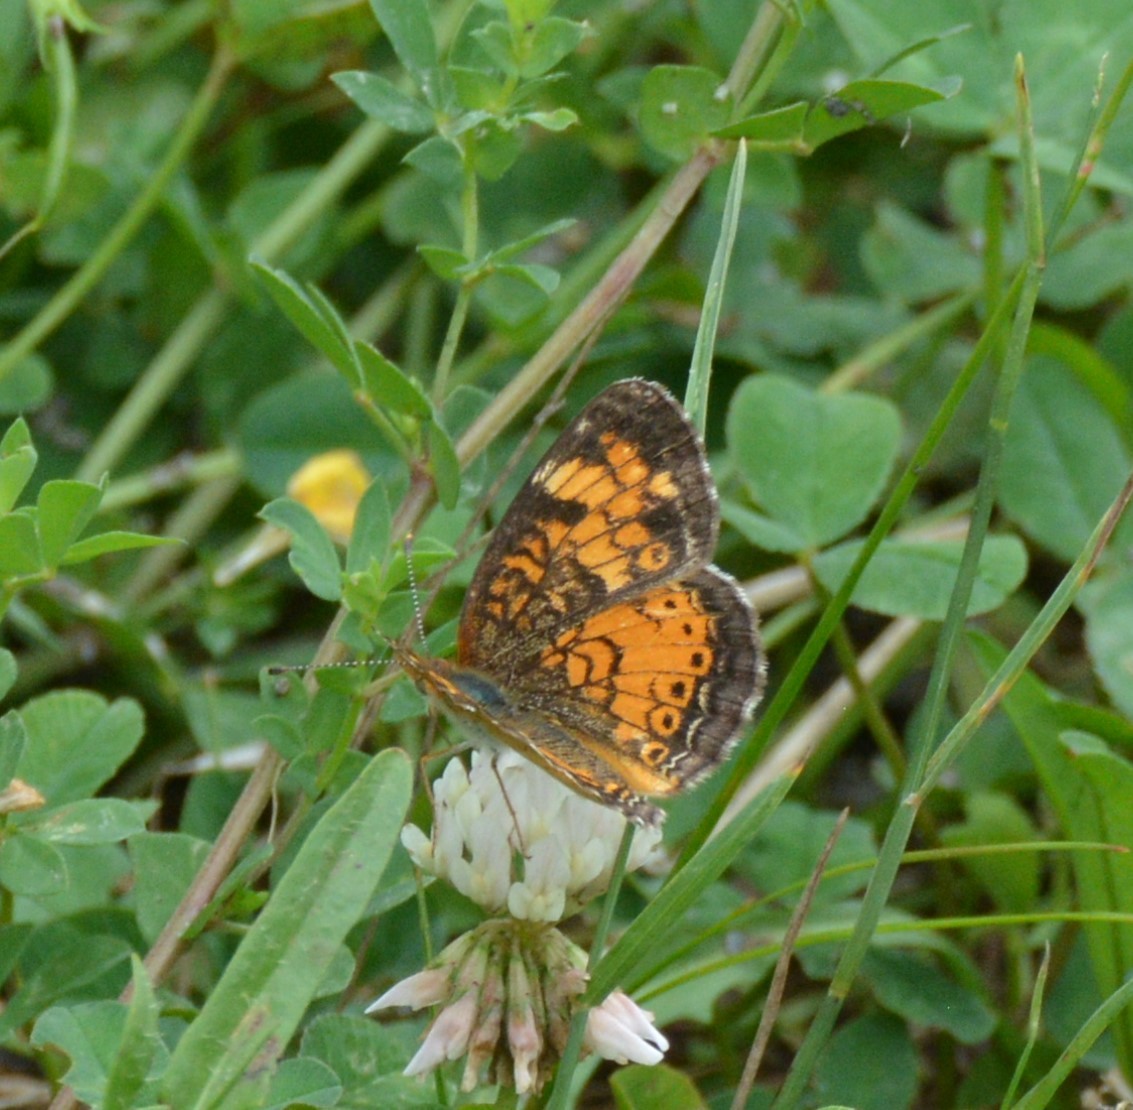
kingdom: Animalia
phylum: Arthropoda
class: Insecta
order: Lepidoptera
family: Nymphalidae
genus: Phyciodes
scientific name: Phyciodes tharos
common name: Pearl crescent
